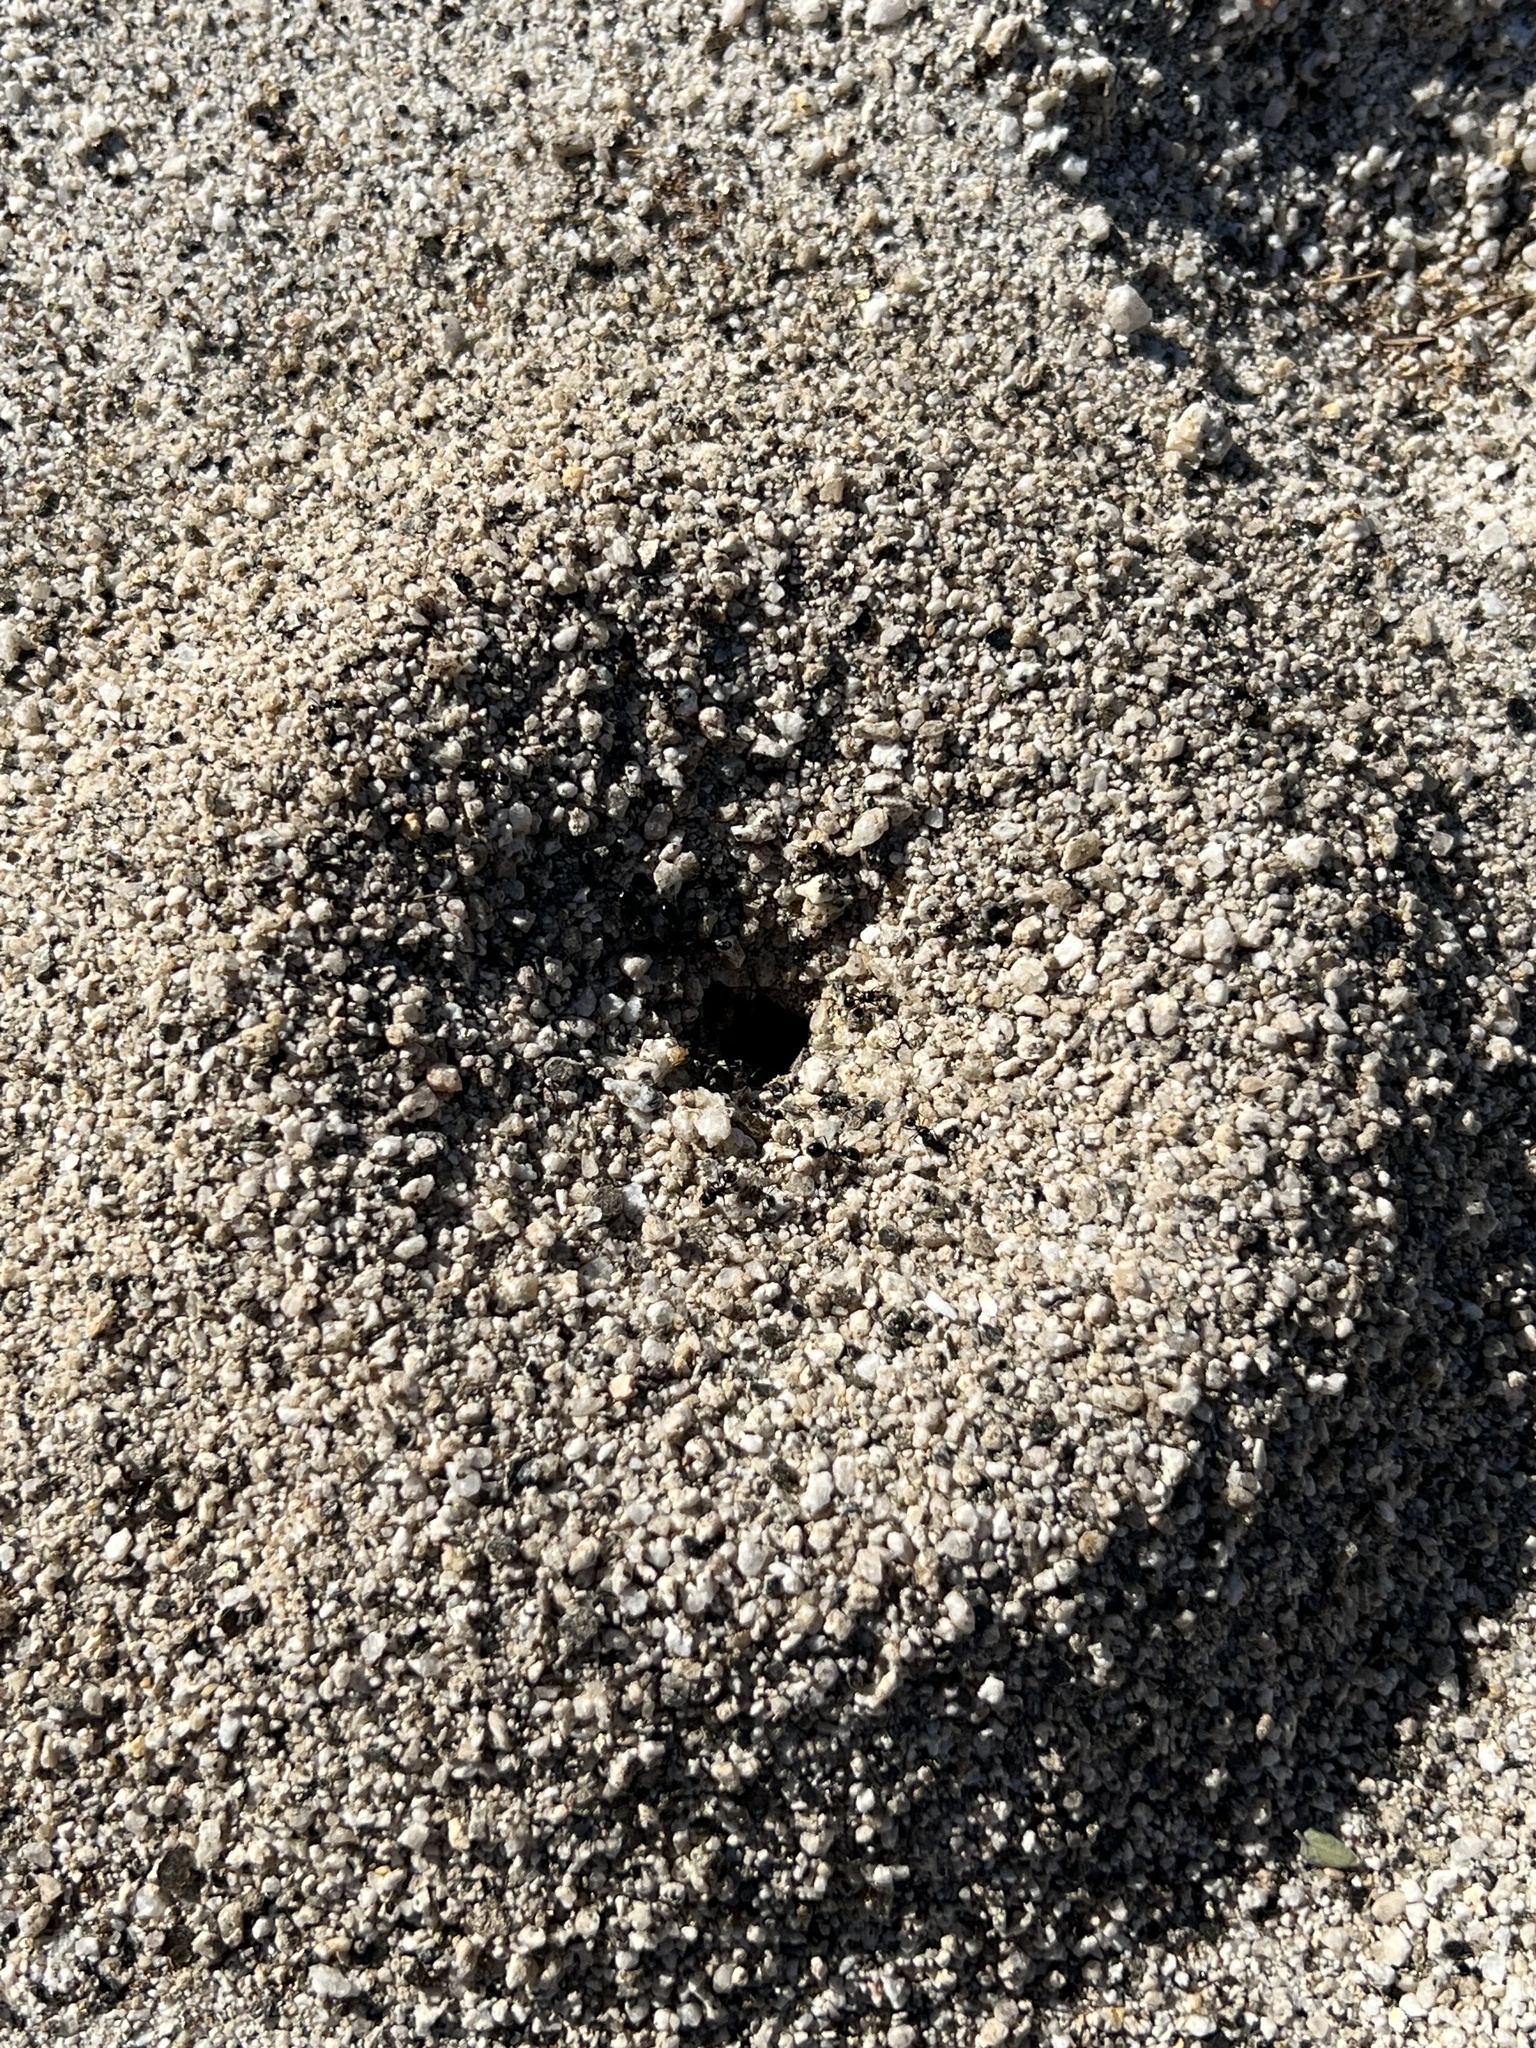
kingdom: Animalia
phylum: Arthropoda
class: Insecta
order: Hymenoptera
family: Formicidae
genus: Messor
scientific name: Messor pergandei
